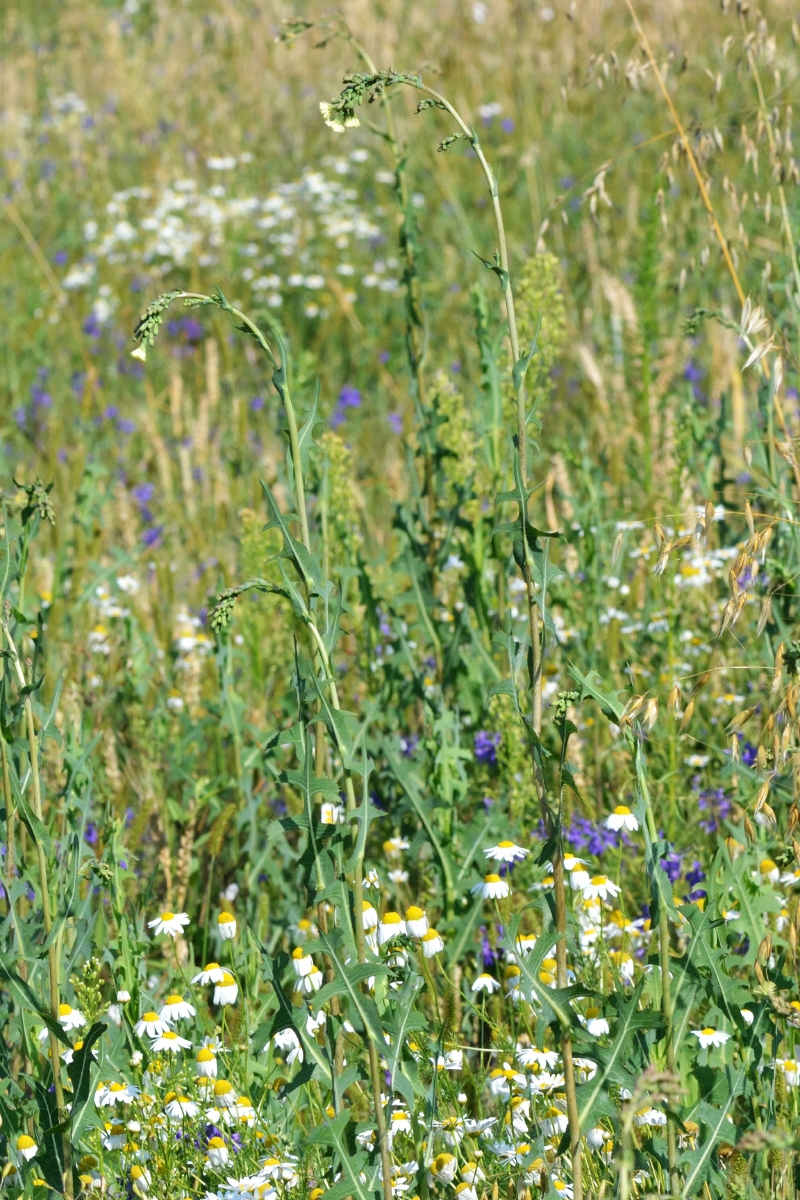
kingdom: Plantae
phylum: Tracheophyta
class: Magnoliopsida
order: Asterales
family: Asteraceae
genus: Lactuca
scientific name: Lactuca serriola
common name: Prickly lettuce
